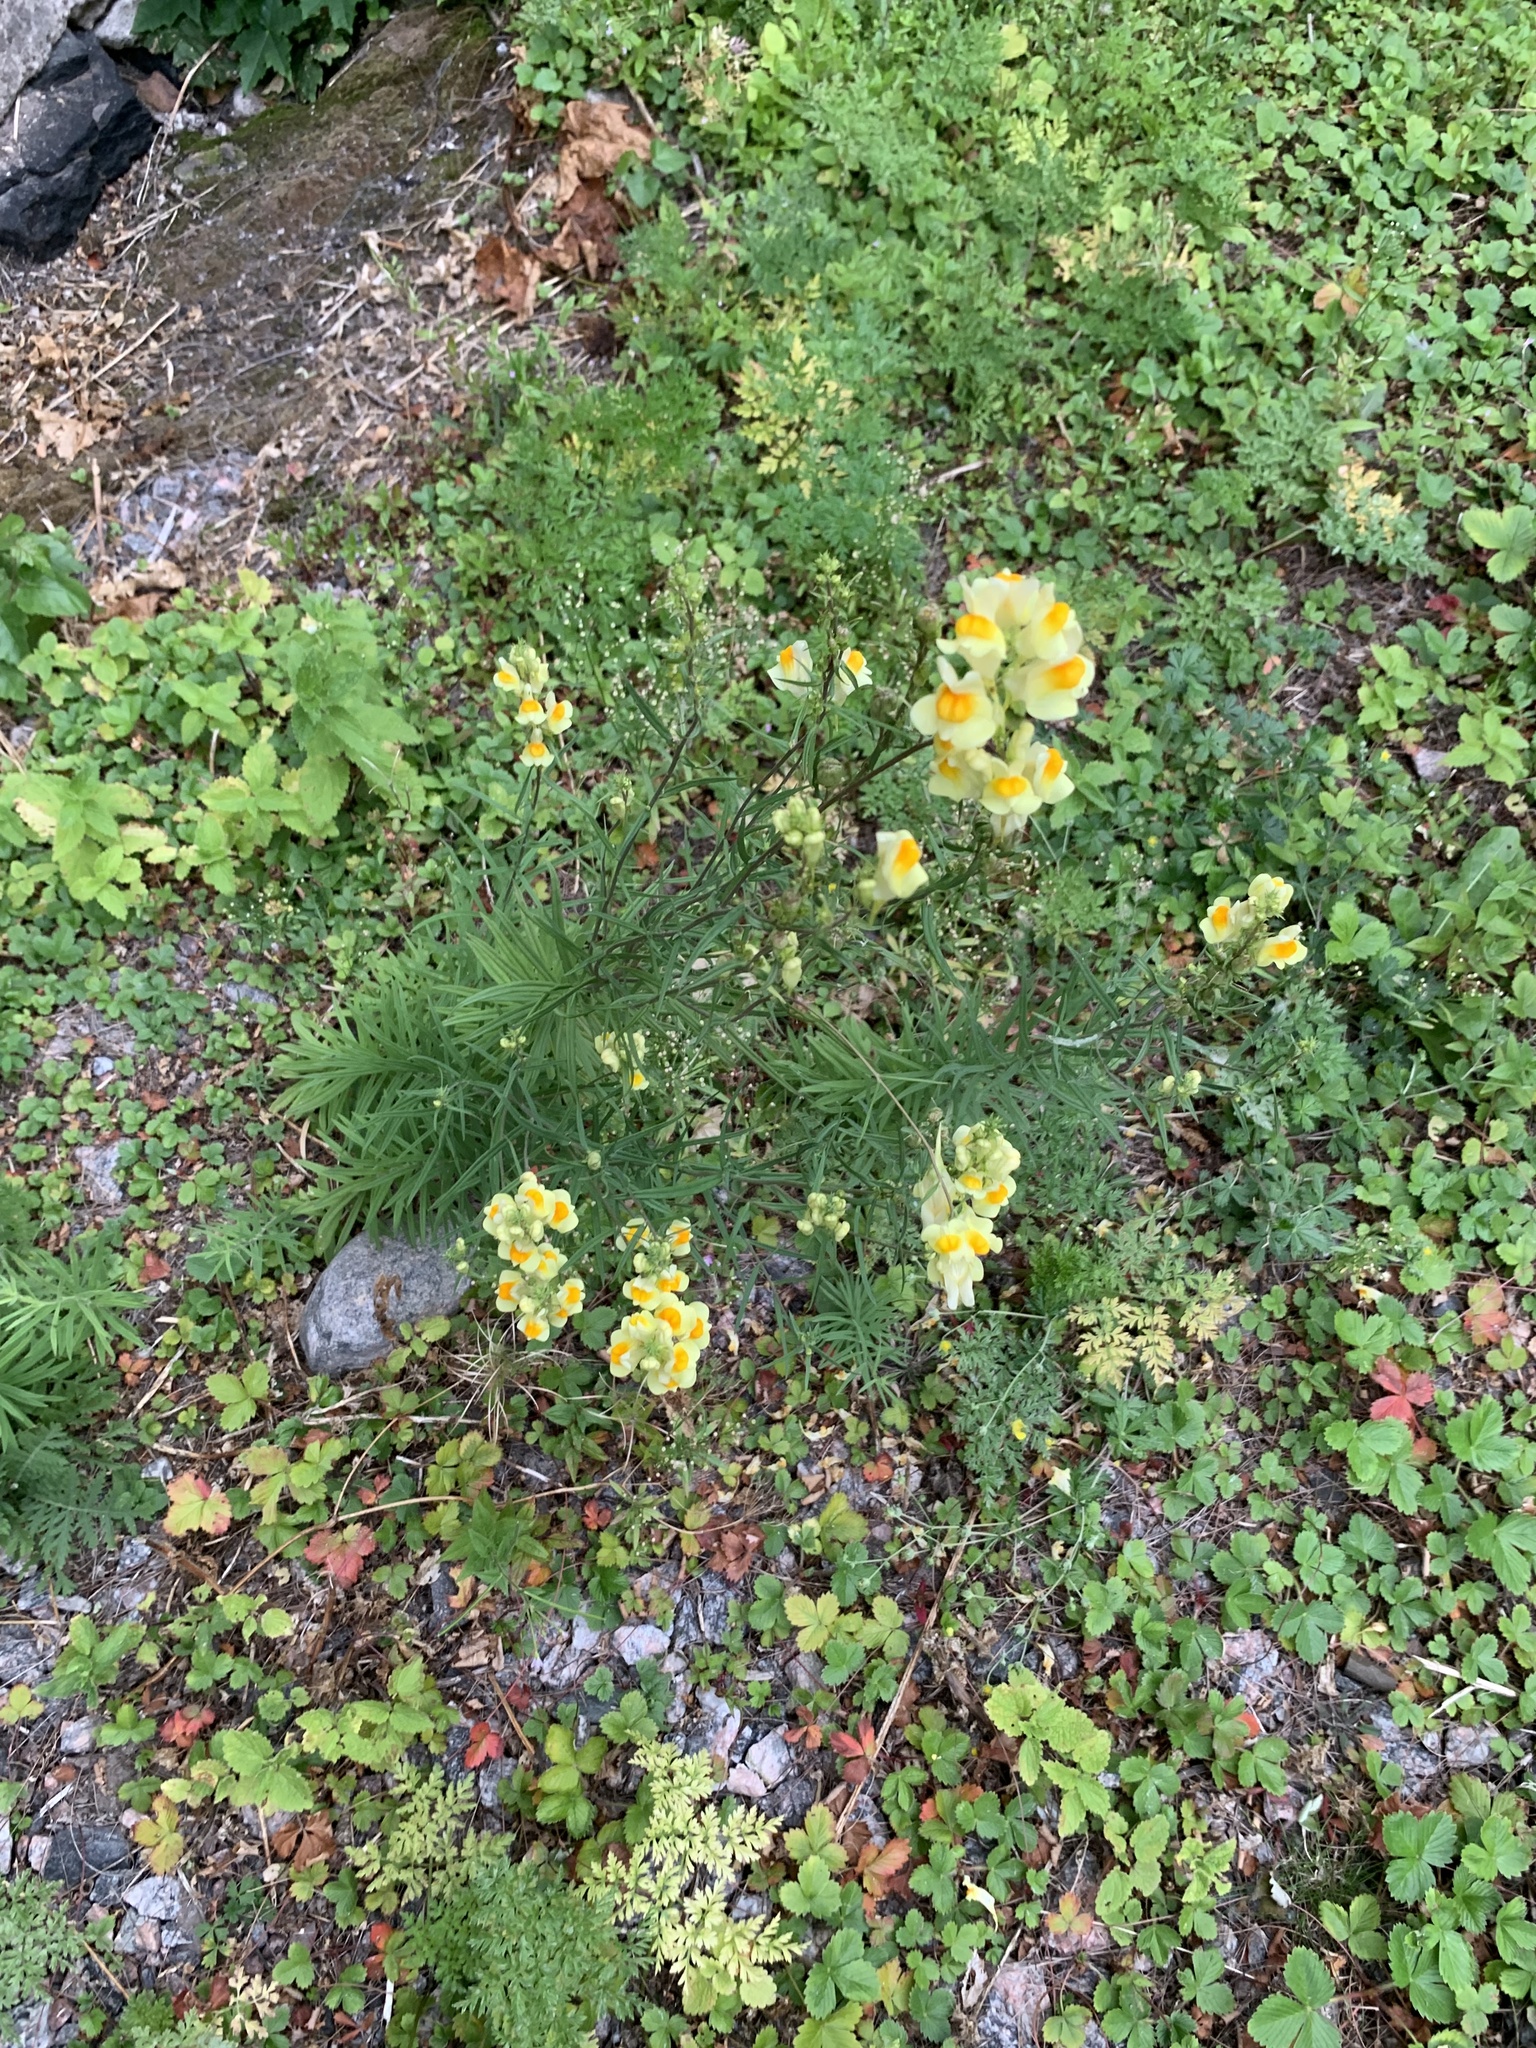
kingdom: Plantae
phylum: Tracheophyta
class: Magnoliopsida
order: Lamiales
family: Plantaginaceae
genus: Linaria
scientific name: Linaria vulgaris
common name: Butter and eggs
